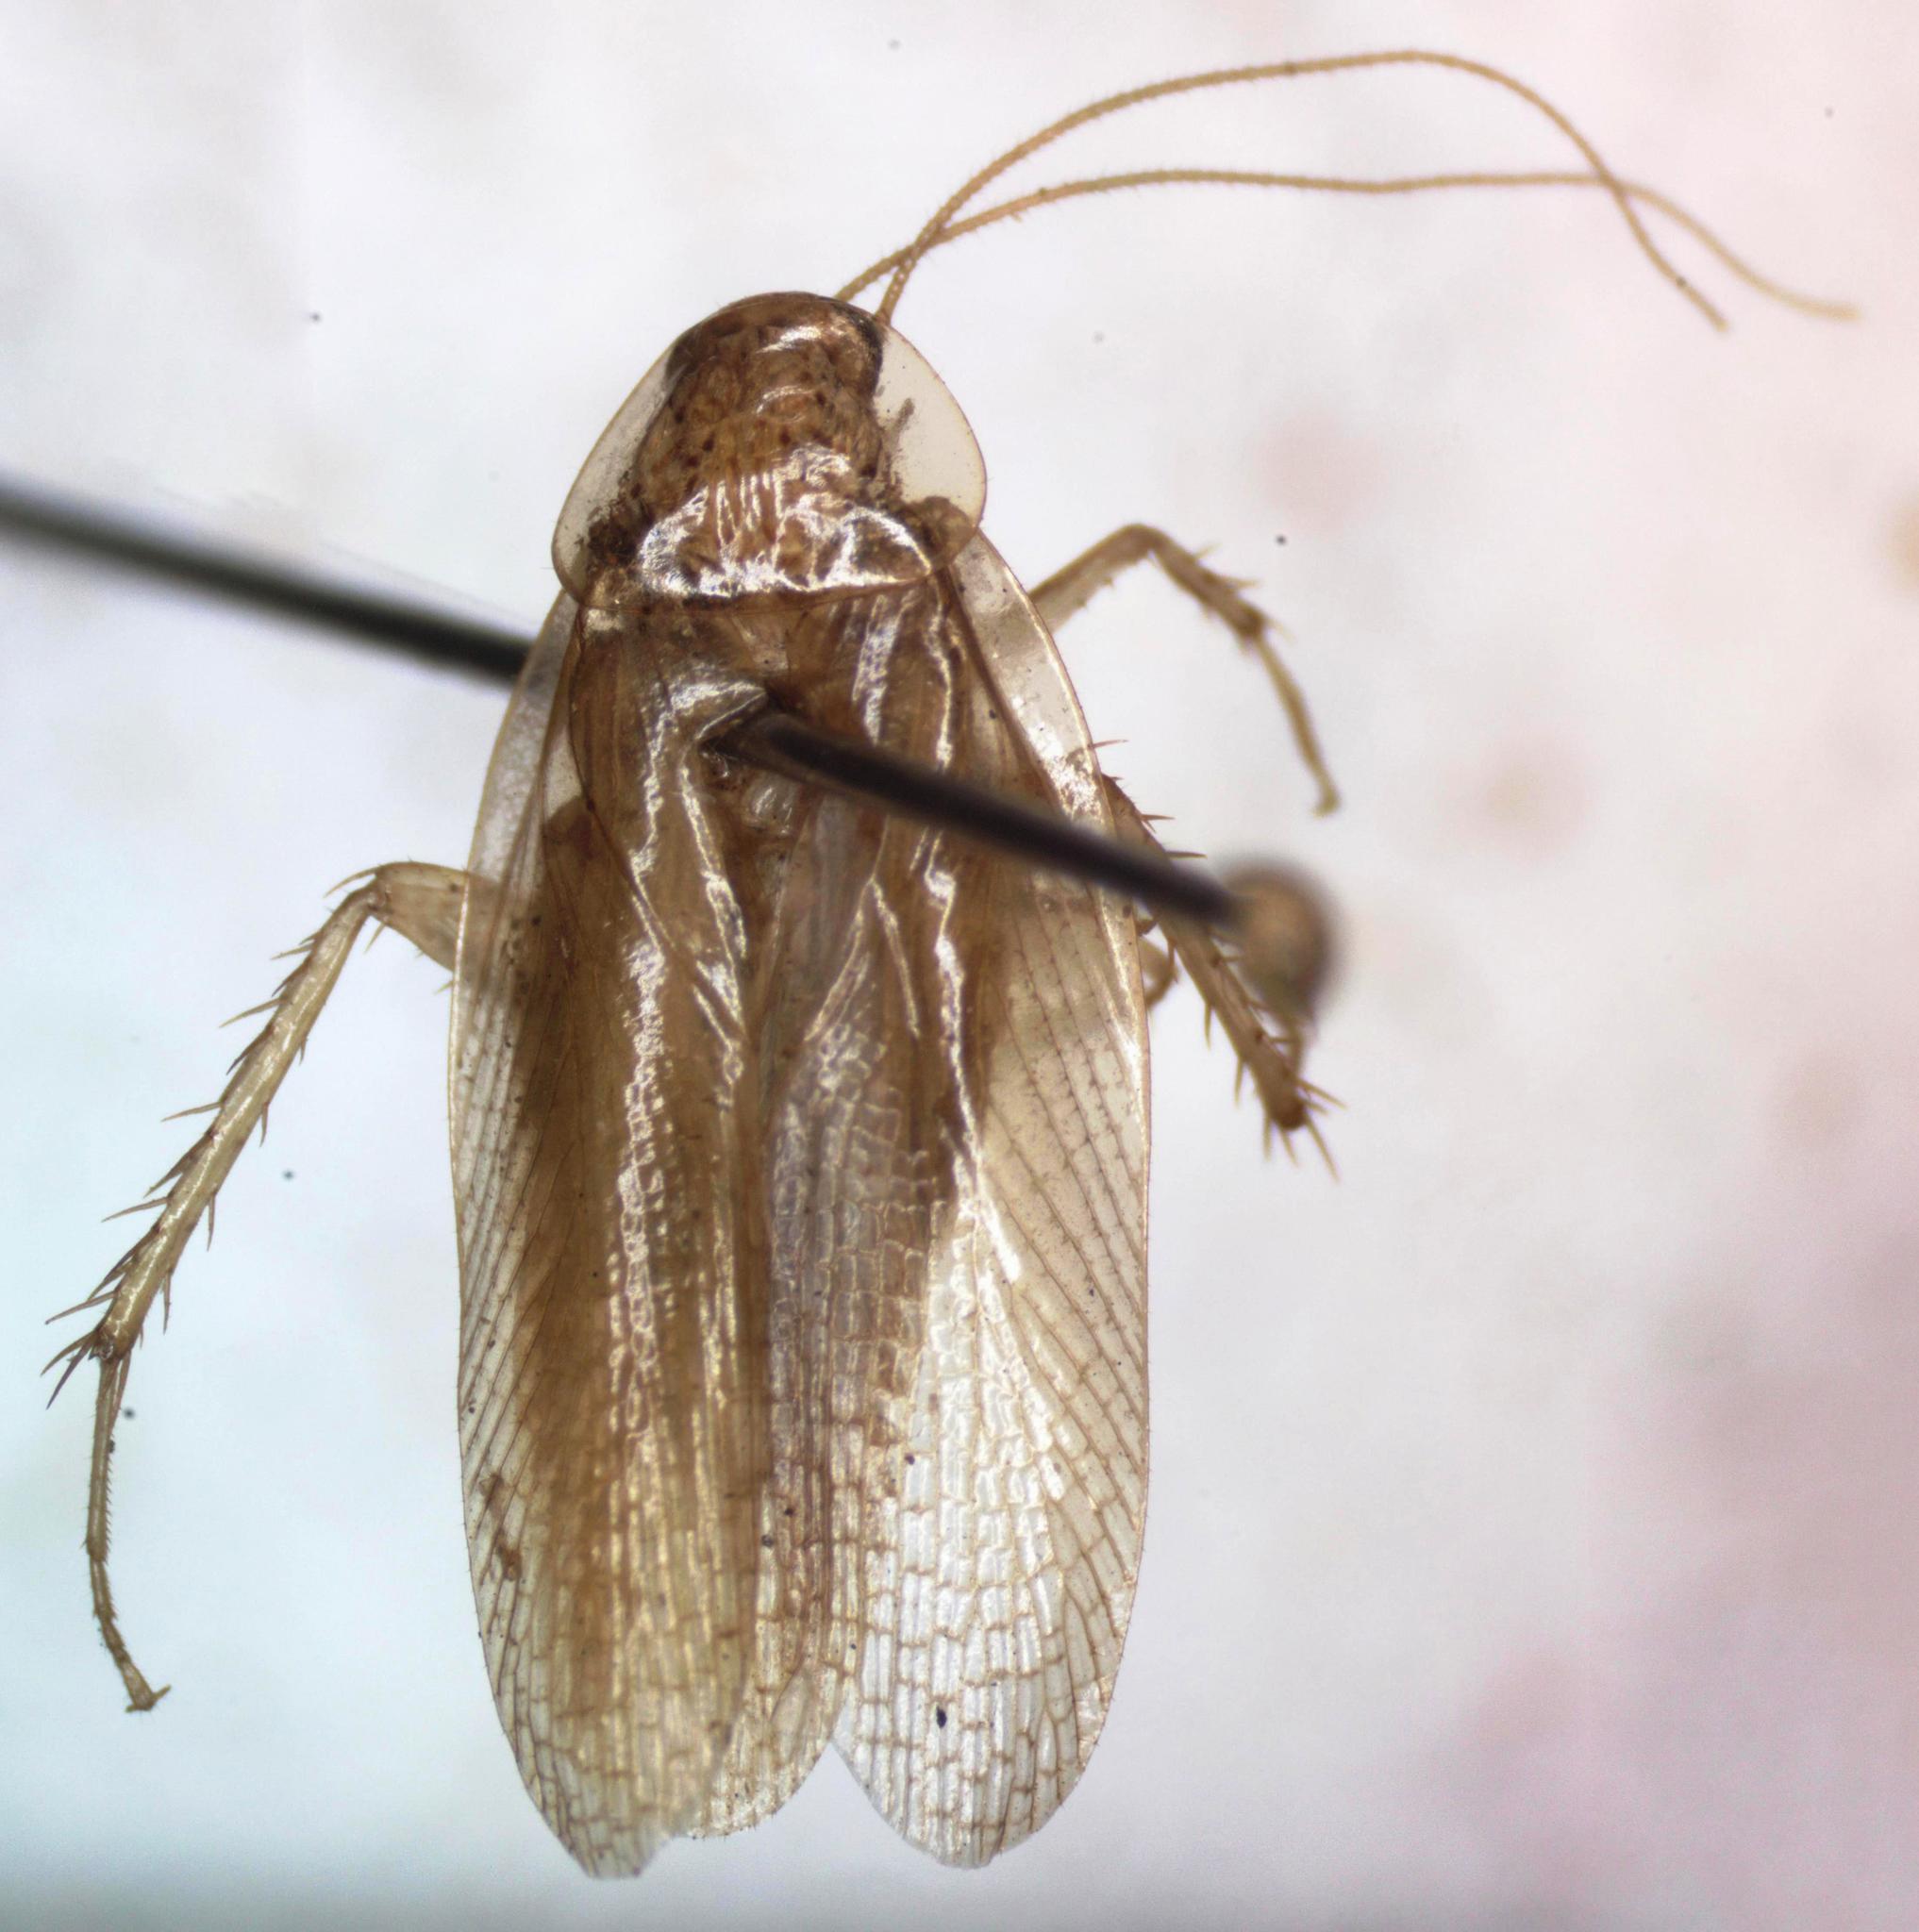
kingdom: Animalia
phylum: Arthropoda
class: Insecta
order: Blattodea
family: Ectobiidae
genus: Imblattella
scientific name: Imblattella chagrensis
